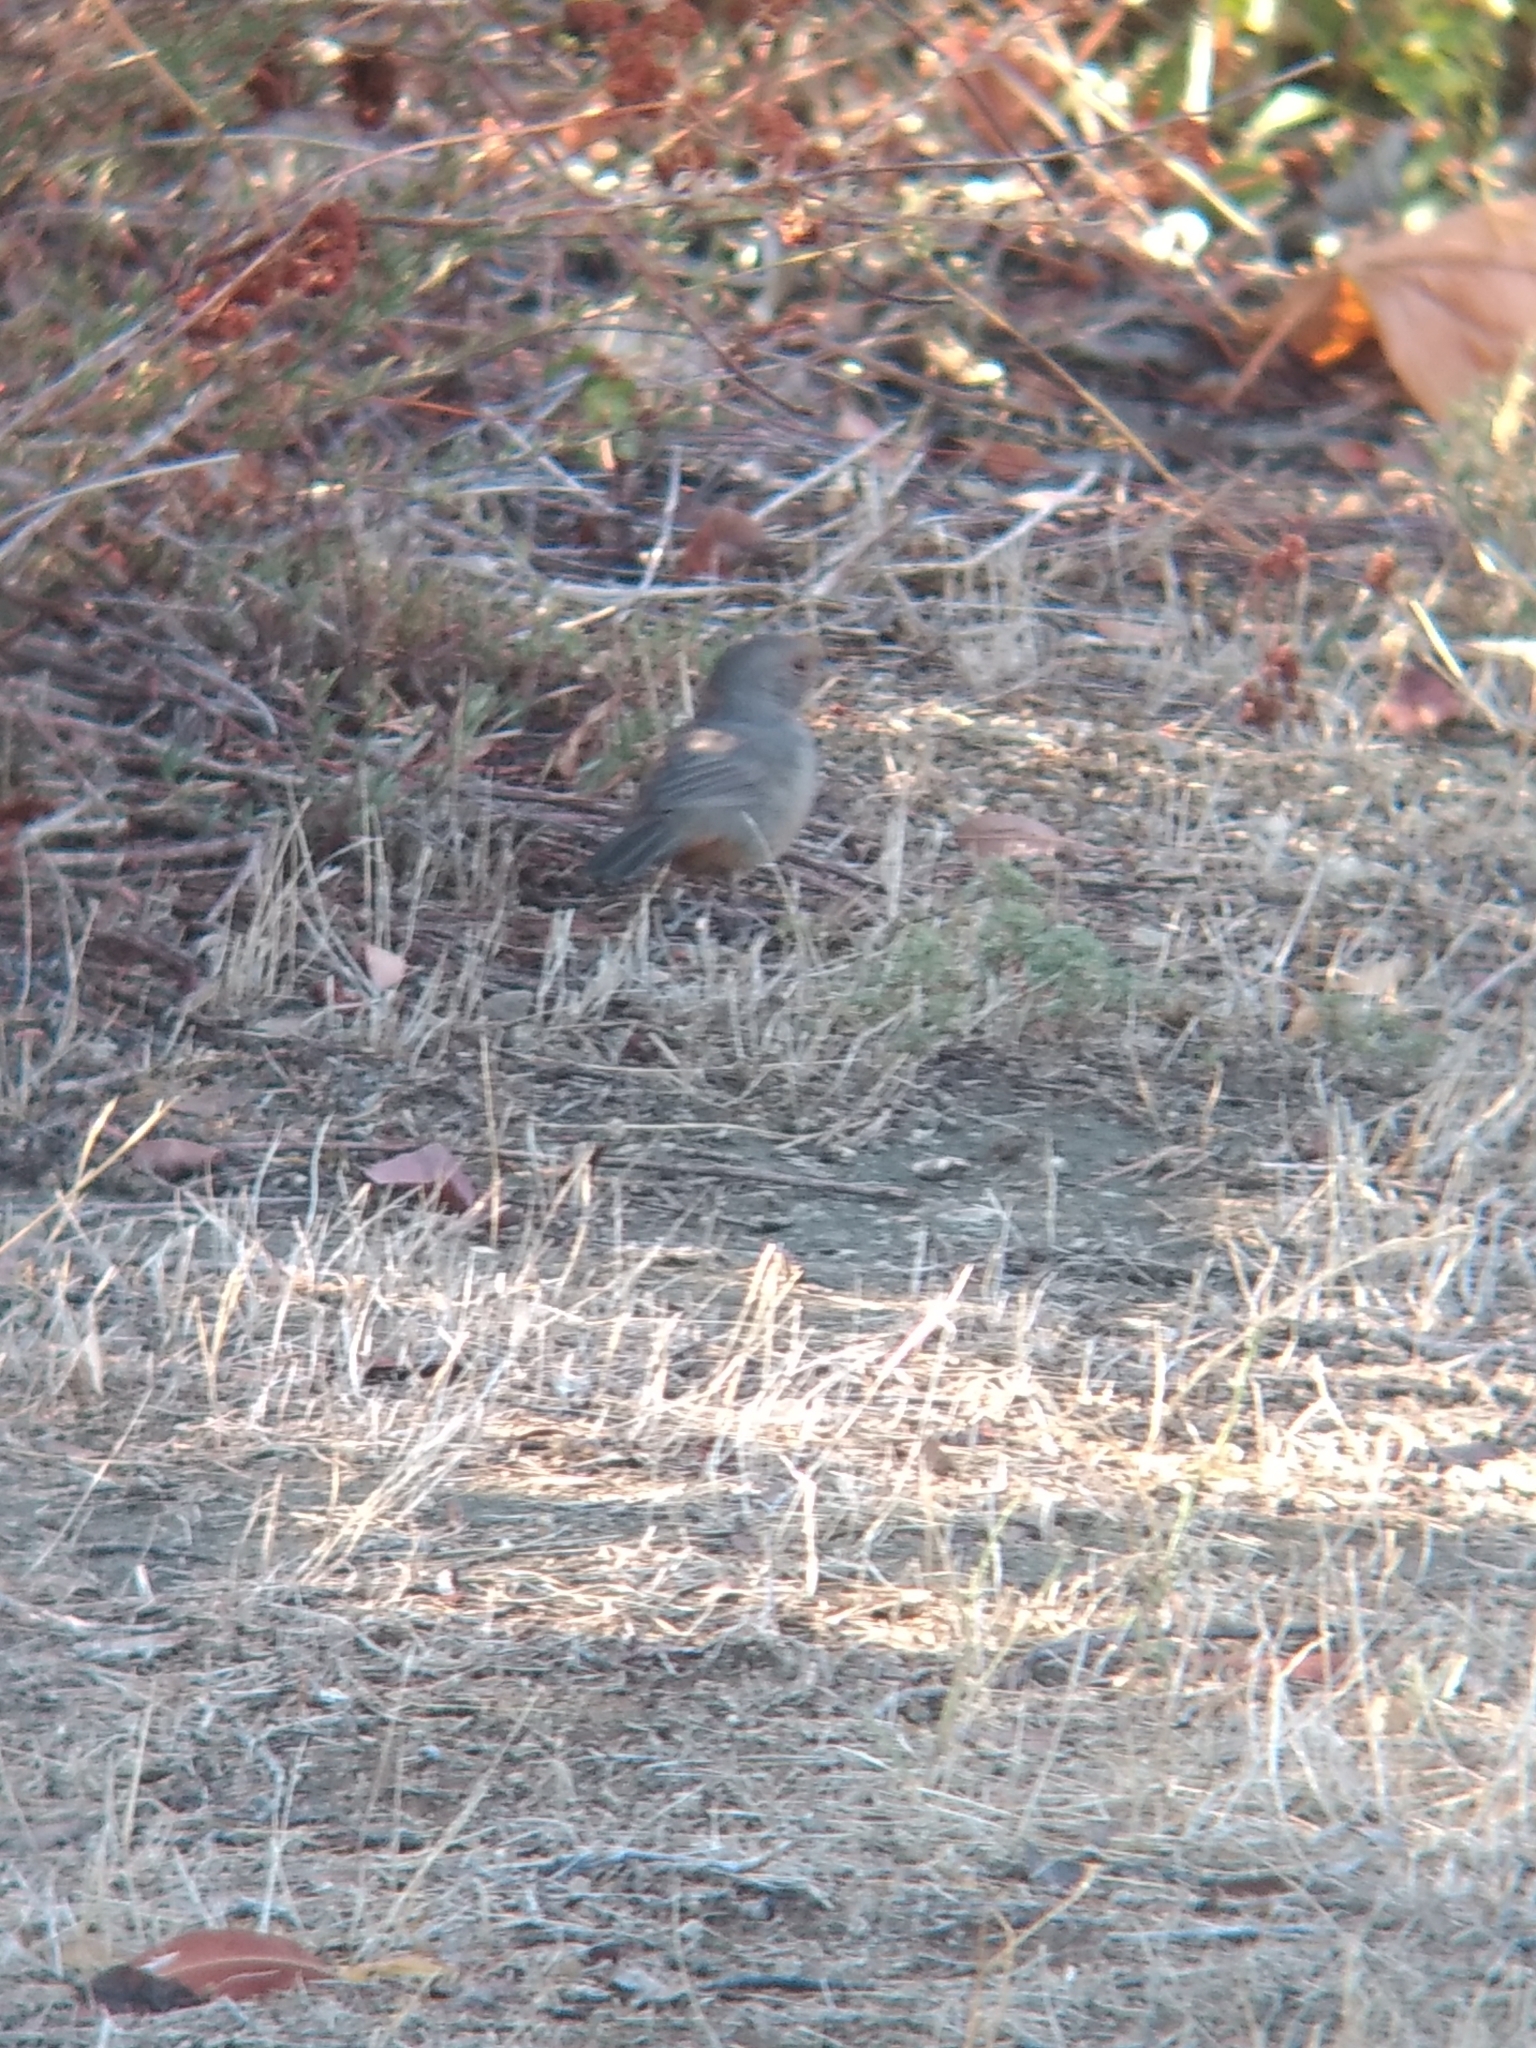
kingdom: Animalia
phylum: Chordata
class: Aves
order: Passeriformes
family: Passerellidae
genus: Melozone
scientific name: Melozone crissalis
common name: California towhee
